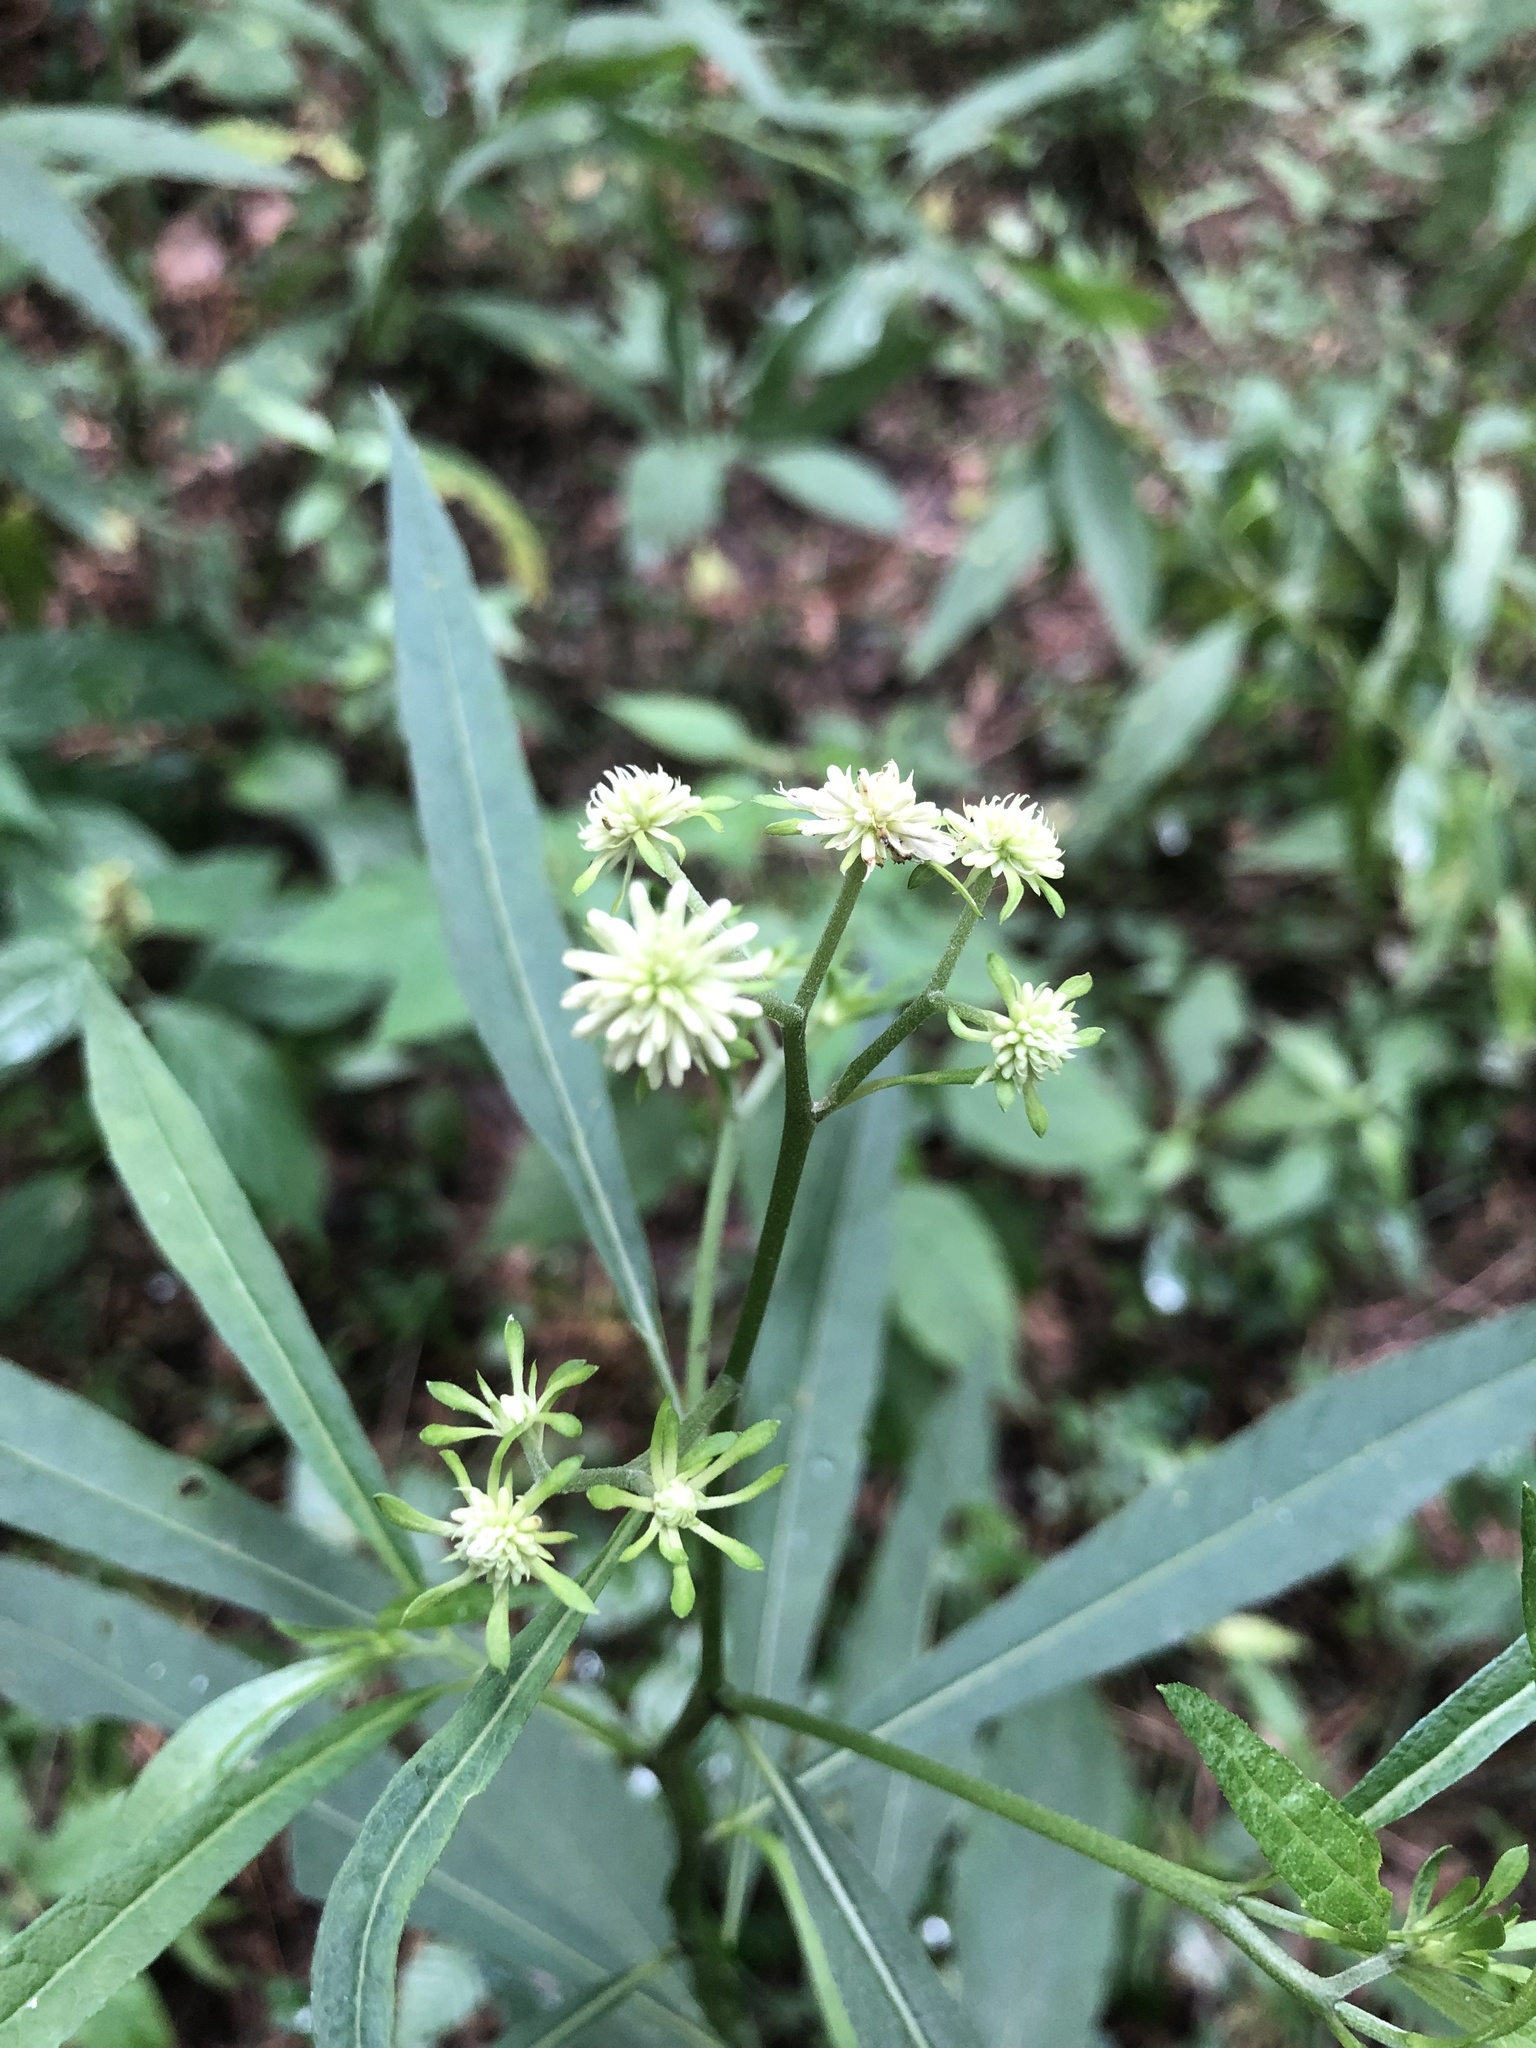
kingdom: Plantae
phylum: Tracheophyta
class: Magnoliopsida
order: Asterales
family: Asteraceae
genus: Verbesina
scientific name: Verbesina walteri
